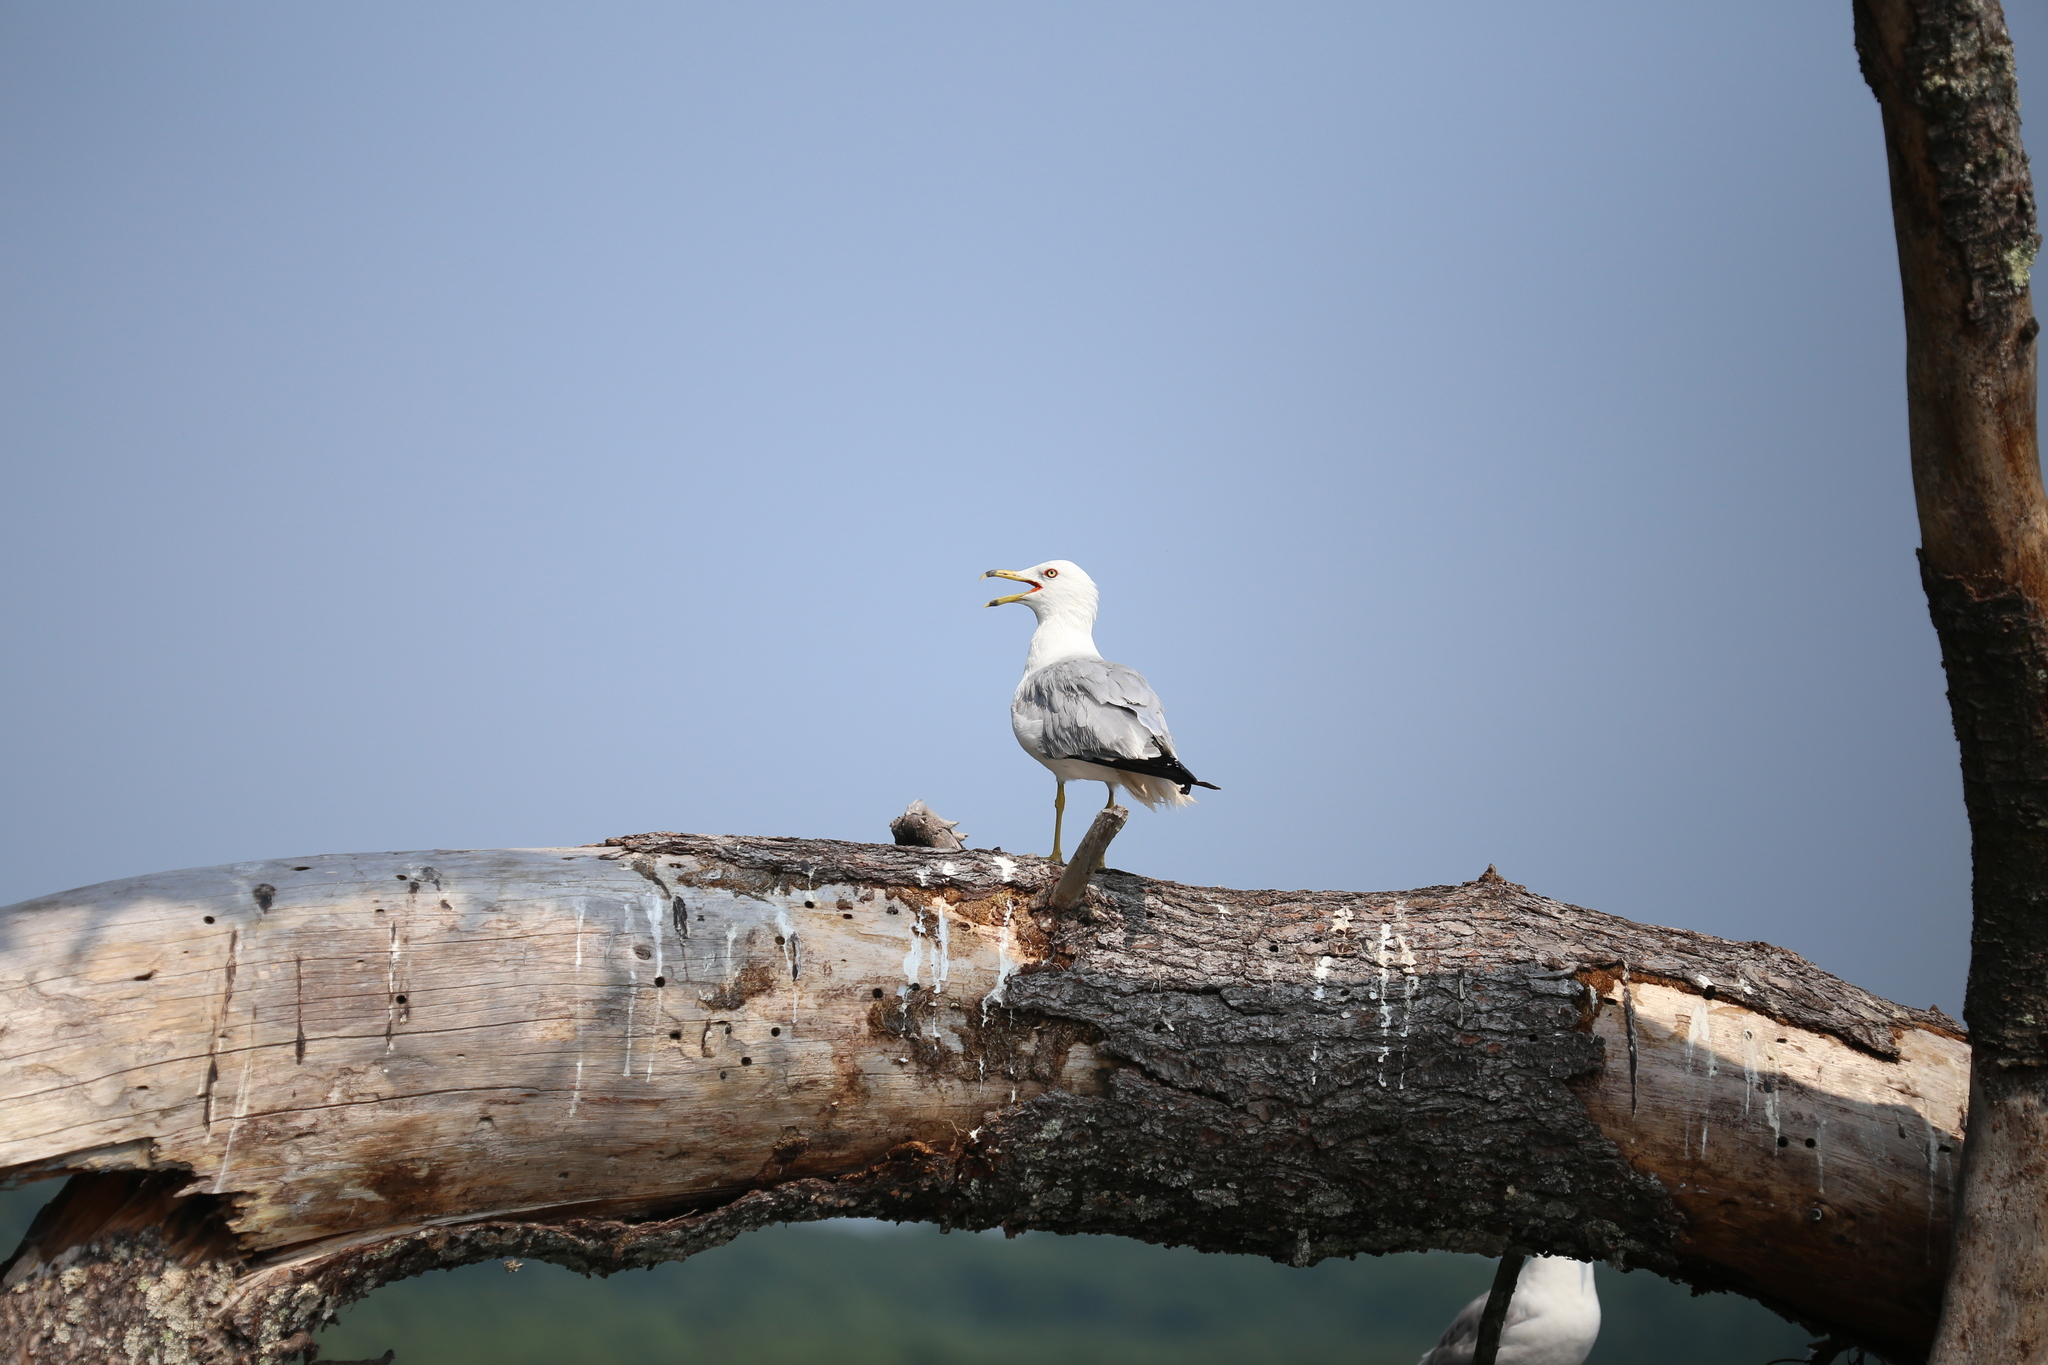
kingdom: Animalia
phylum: Chordata
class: Aves
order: Charadriiformes
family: Laridae
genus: Larus
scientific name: Larus delawarensis
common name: Ring-billed gull
